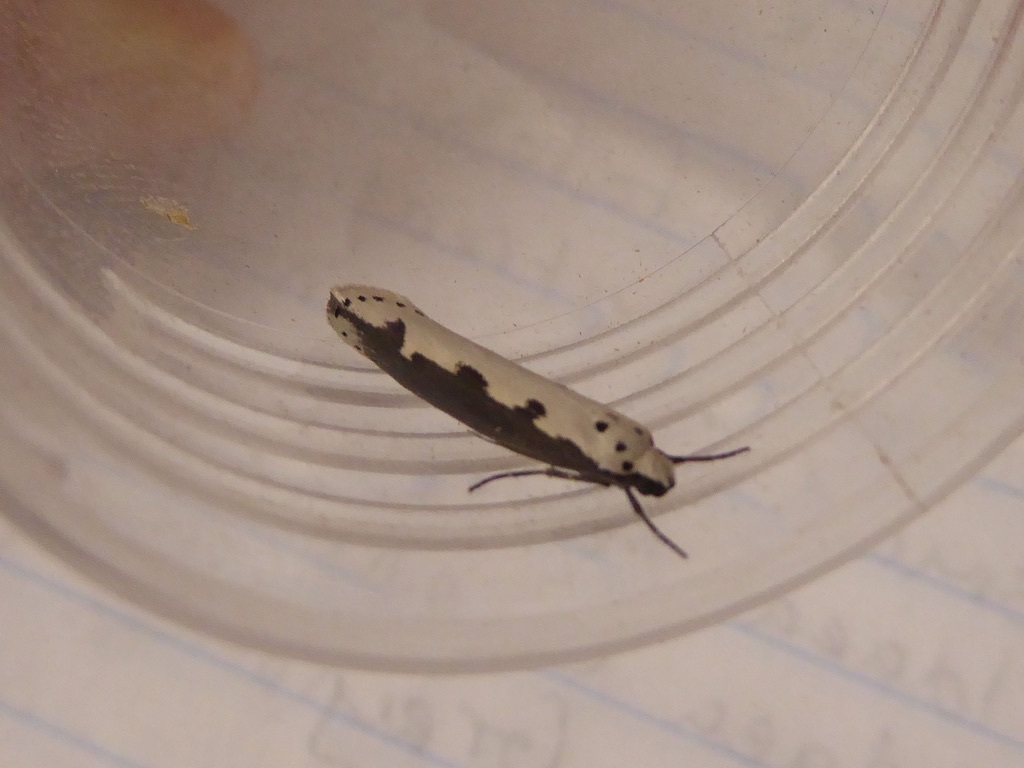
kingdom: Animalia
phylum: Arthropoda
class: Insecta
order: Lepidoptera
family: Ethmiidae
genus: Ethmia
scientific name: Ethmia bipunctella
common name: Bordered ermel
